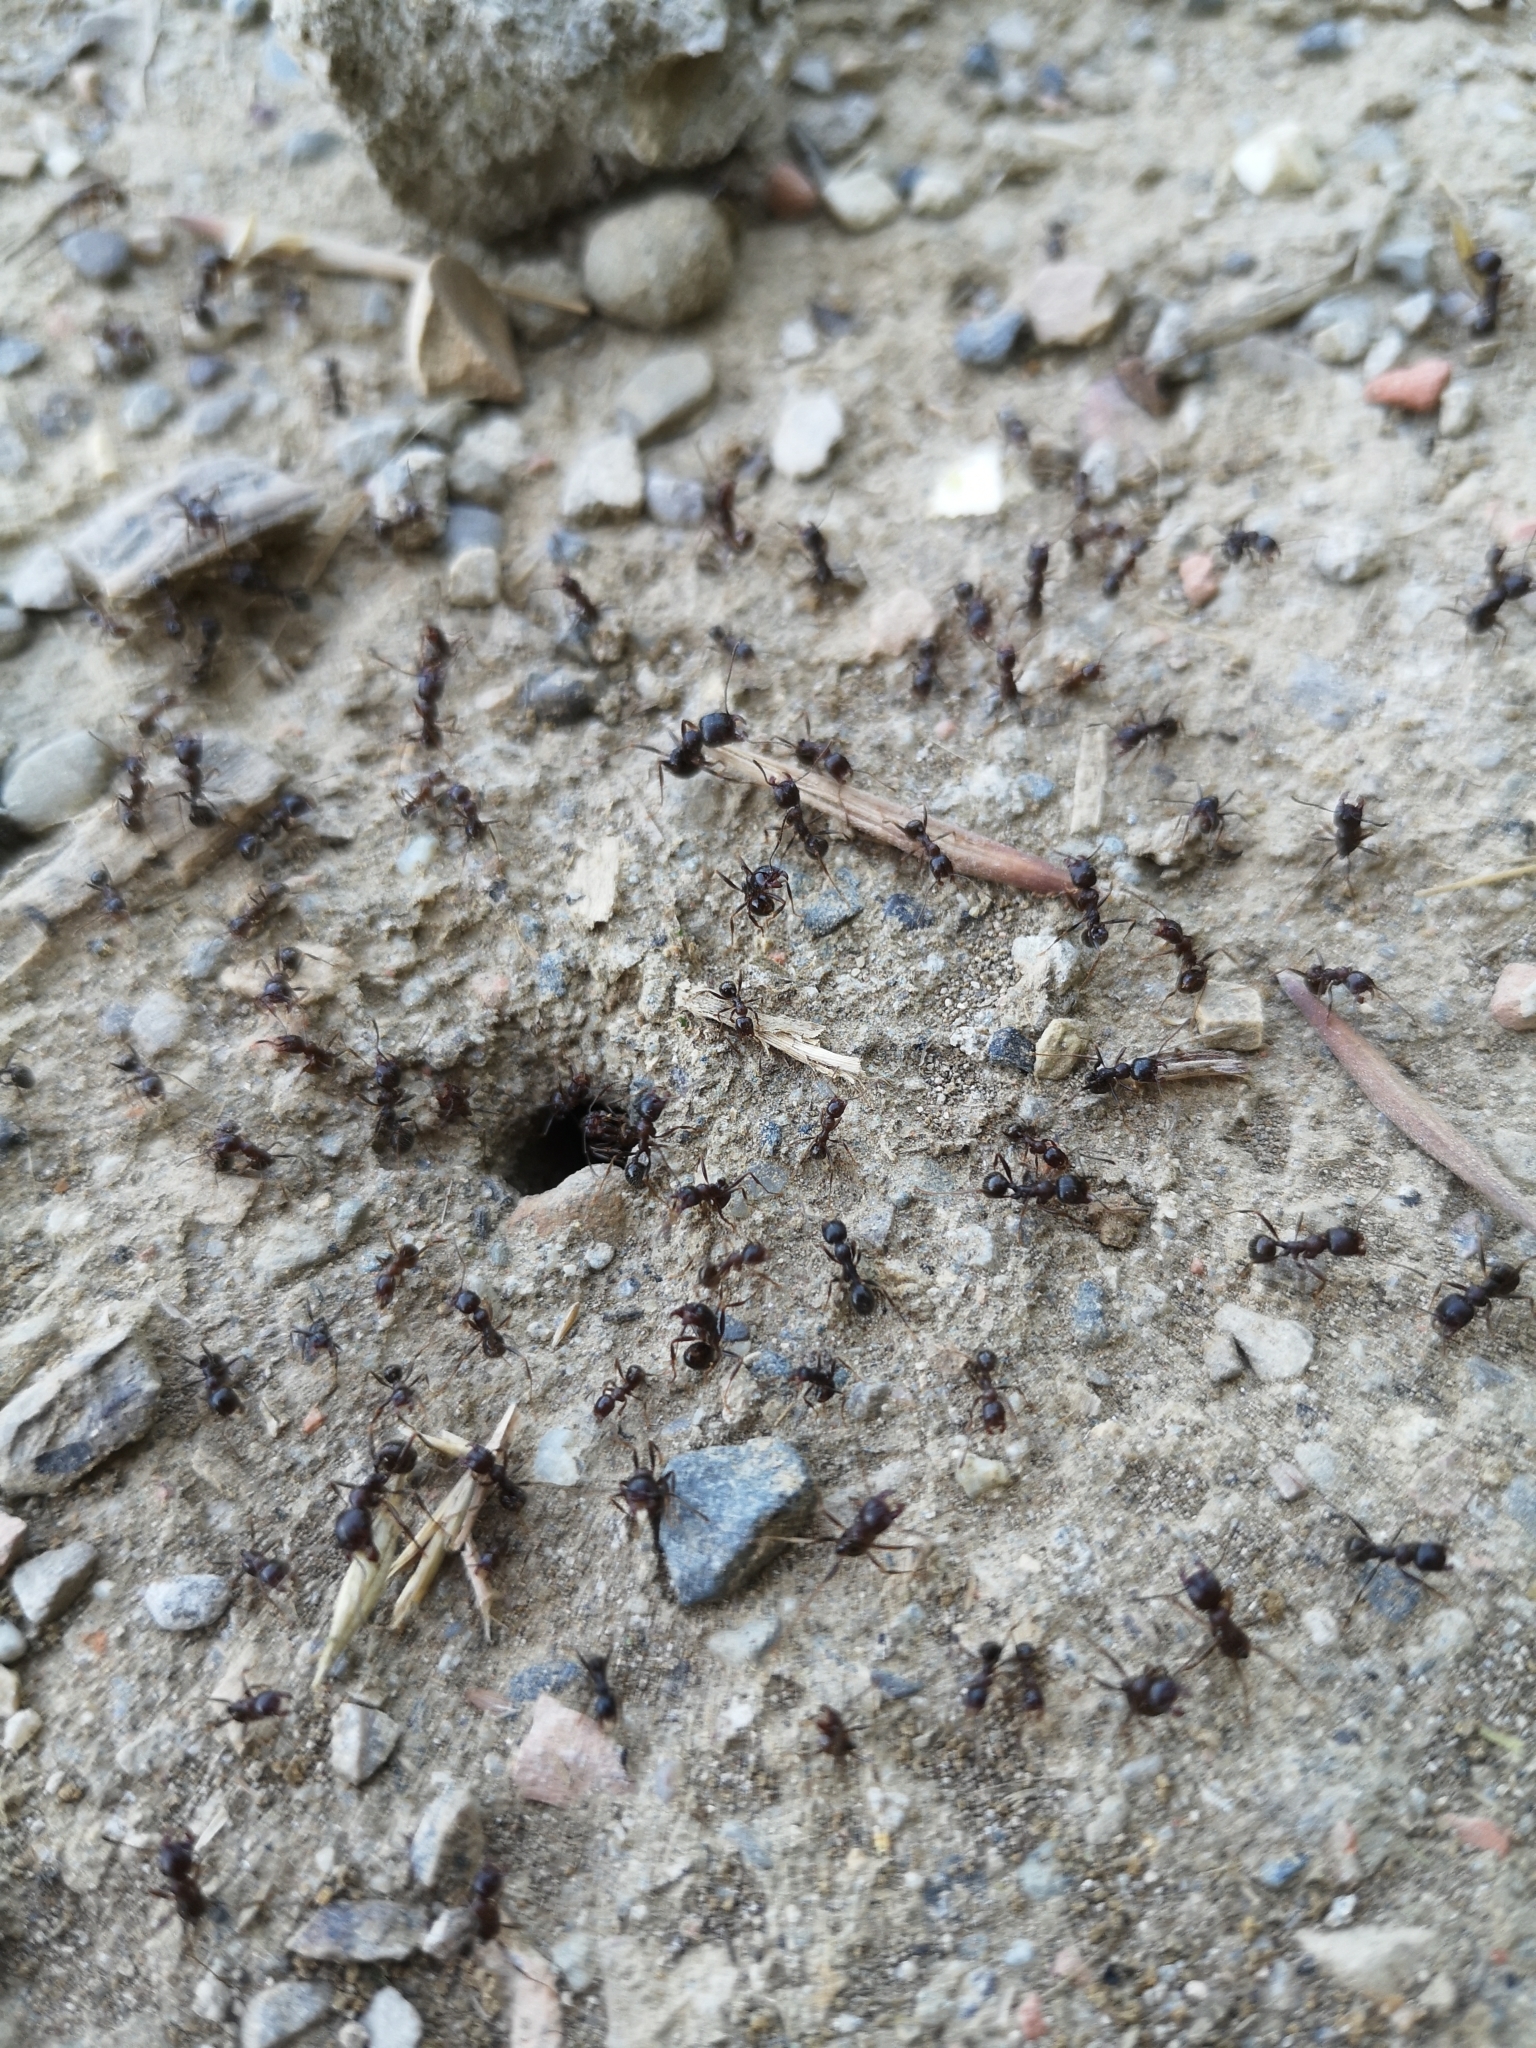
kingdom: Animalia
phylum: Arthropoda
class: Insecta
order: Hymenoptera
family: Formicidae
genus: Messor
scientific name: Messor ibericus
